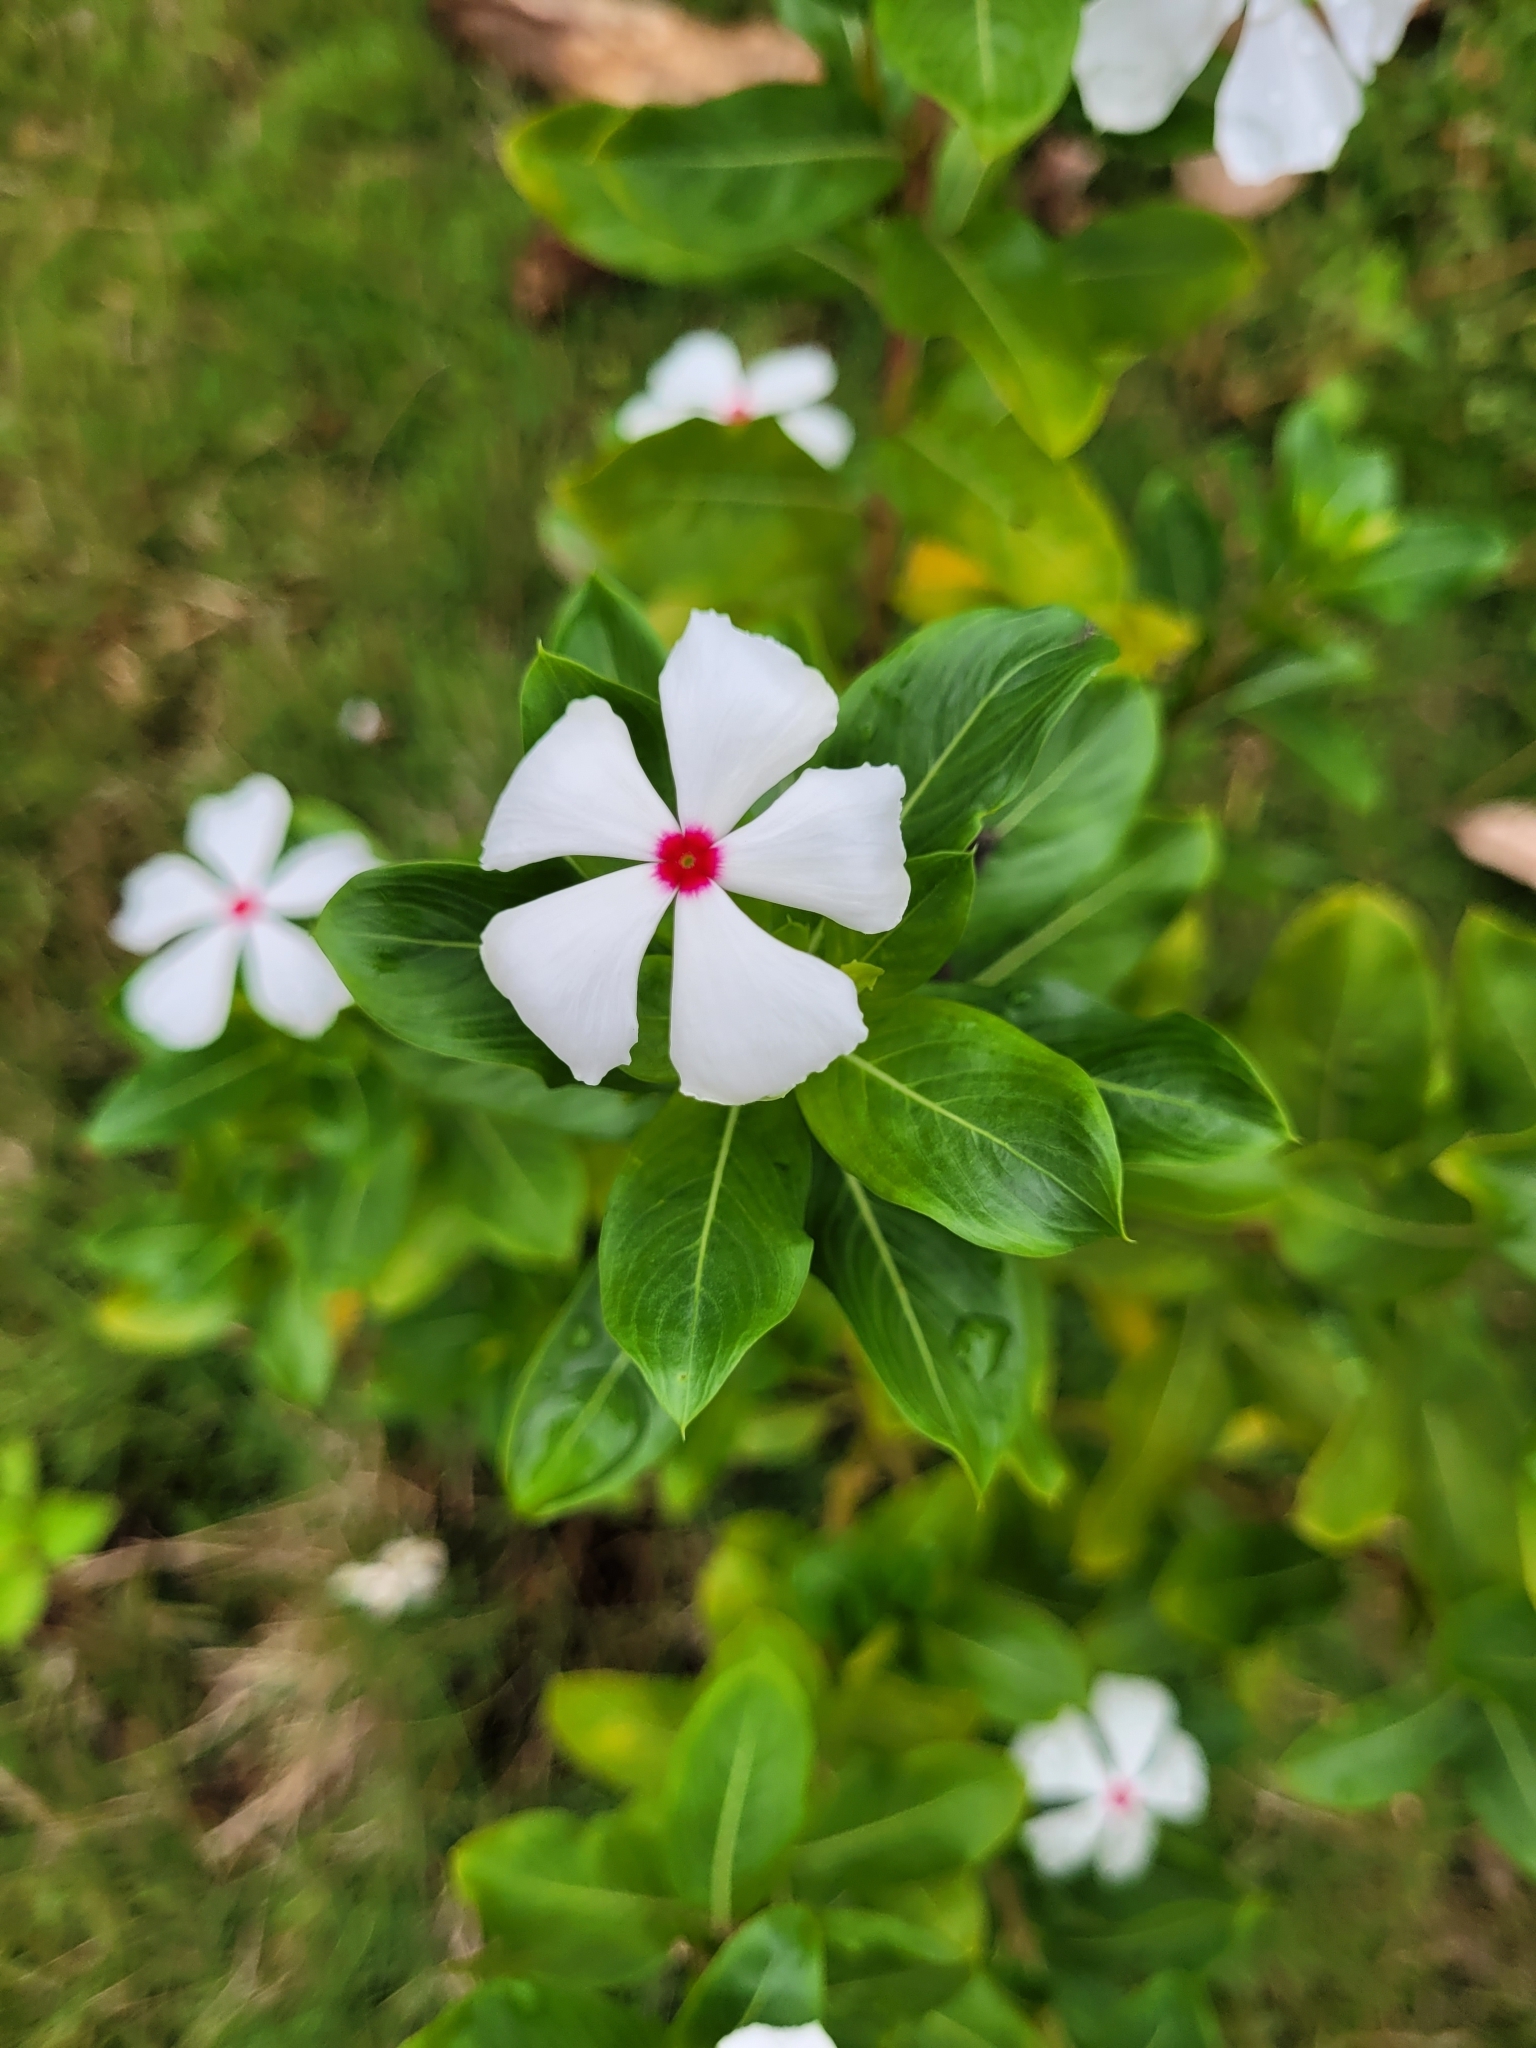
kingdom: Plantae
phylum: Tracheophyta
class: Magnoliopsida
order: Gentianales
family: Apocynaceae
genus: Catharanthus
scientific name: Catharanthus roseus
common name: Madagascar periwinkle
